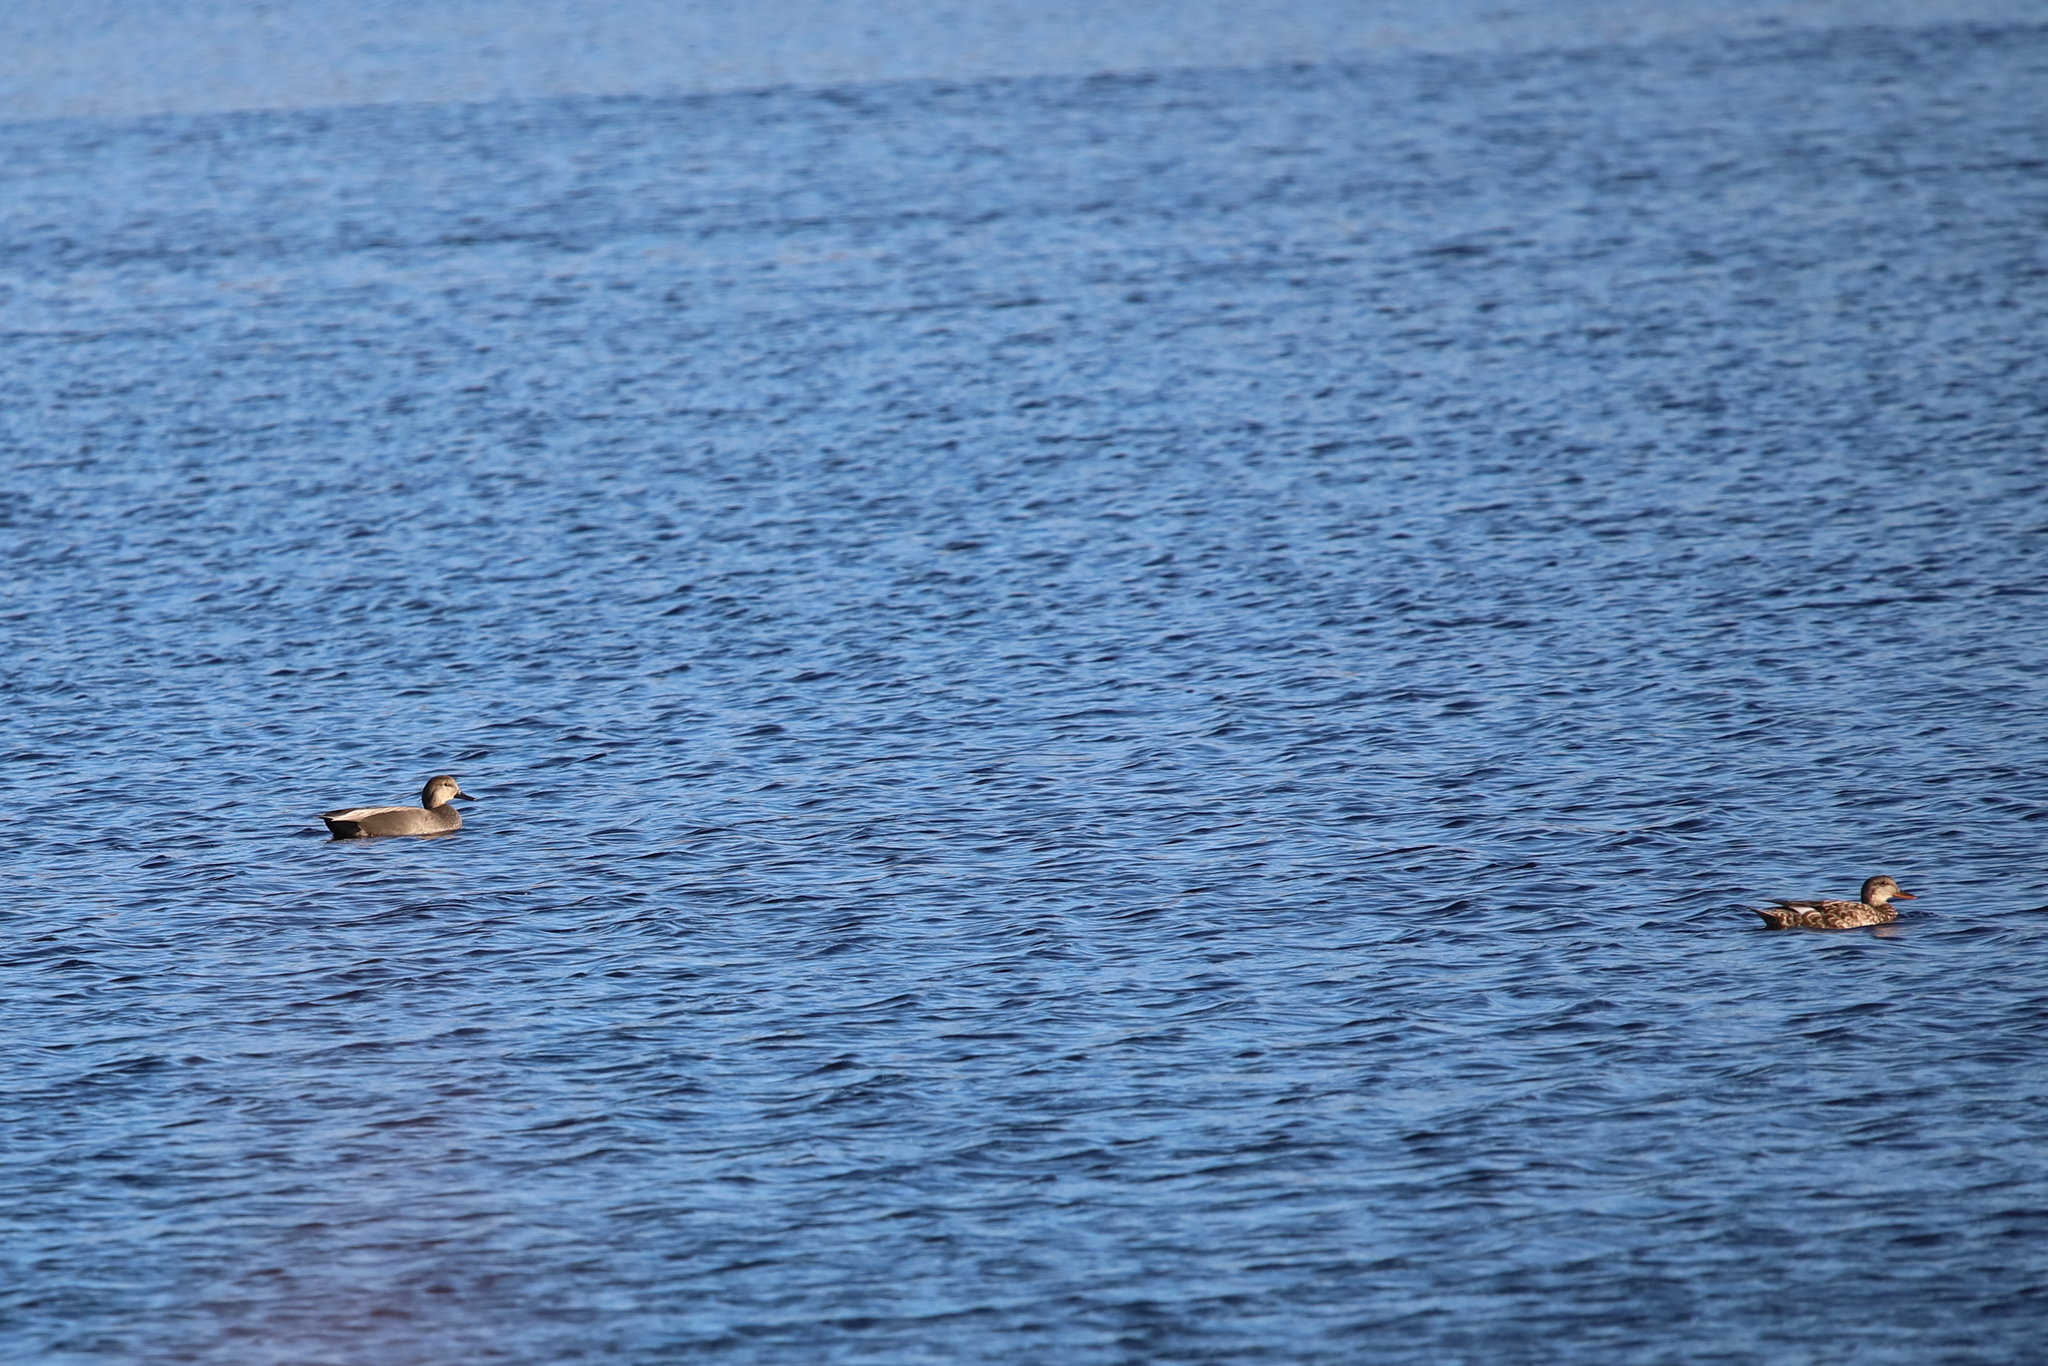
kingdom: Animalia
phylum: Chordata
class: Aves
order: Anseriformes
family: Anatidae
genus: Mareca
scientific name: Mareca strepera
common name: Gadwall
